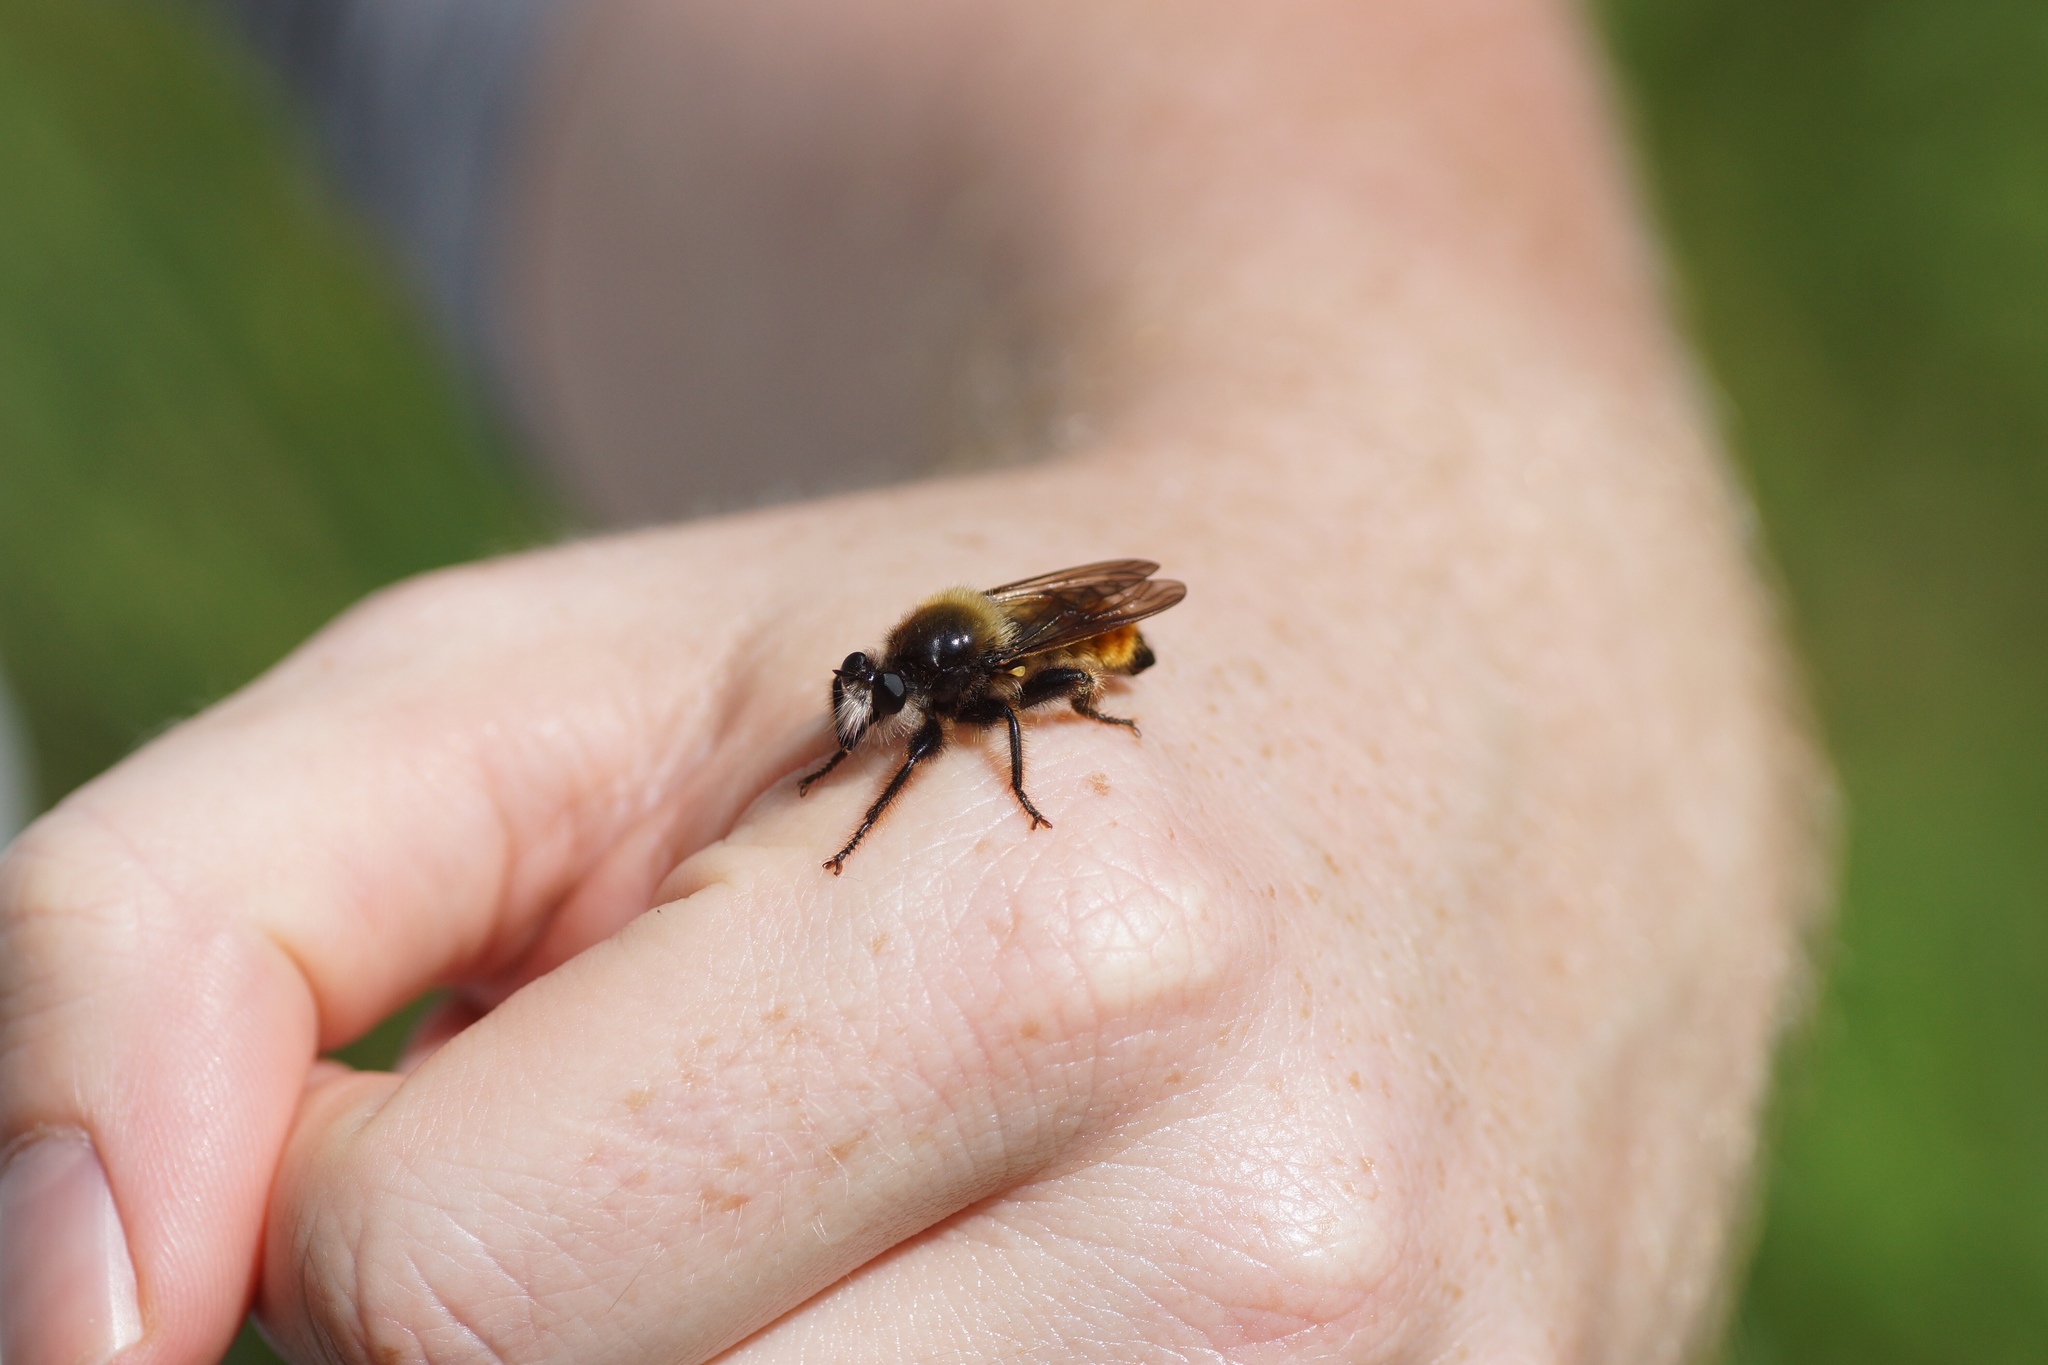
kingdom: Animalia
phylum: Arthropoda
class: Insecta
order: Diptera
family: Asilidae
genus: Laphria
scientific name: Laphria flava
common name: Bumblebee robberfly
